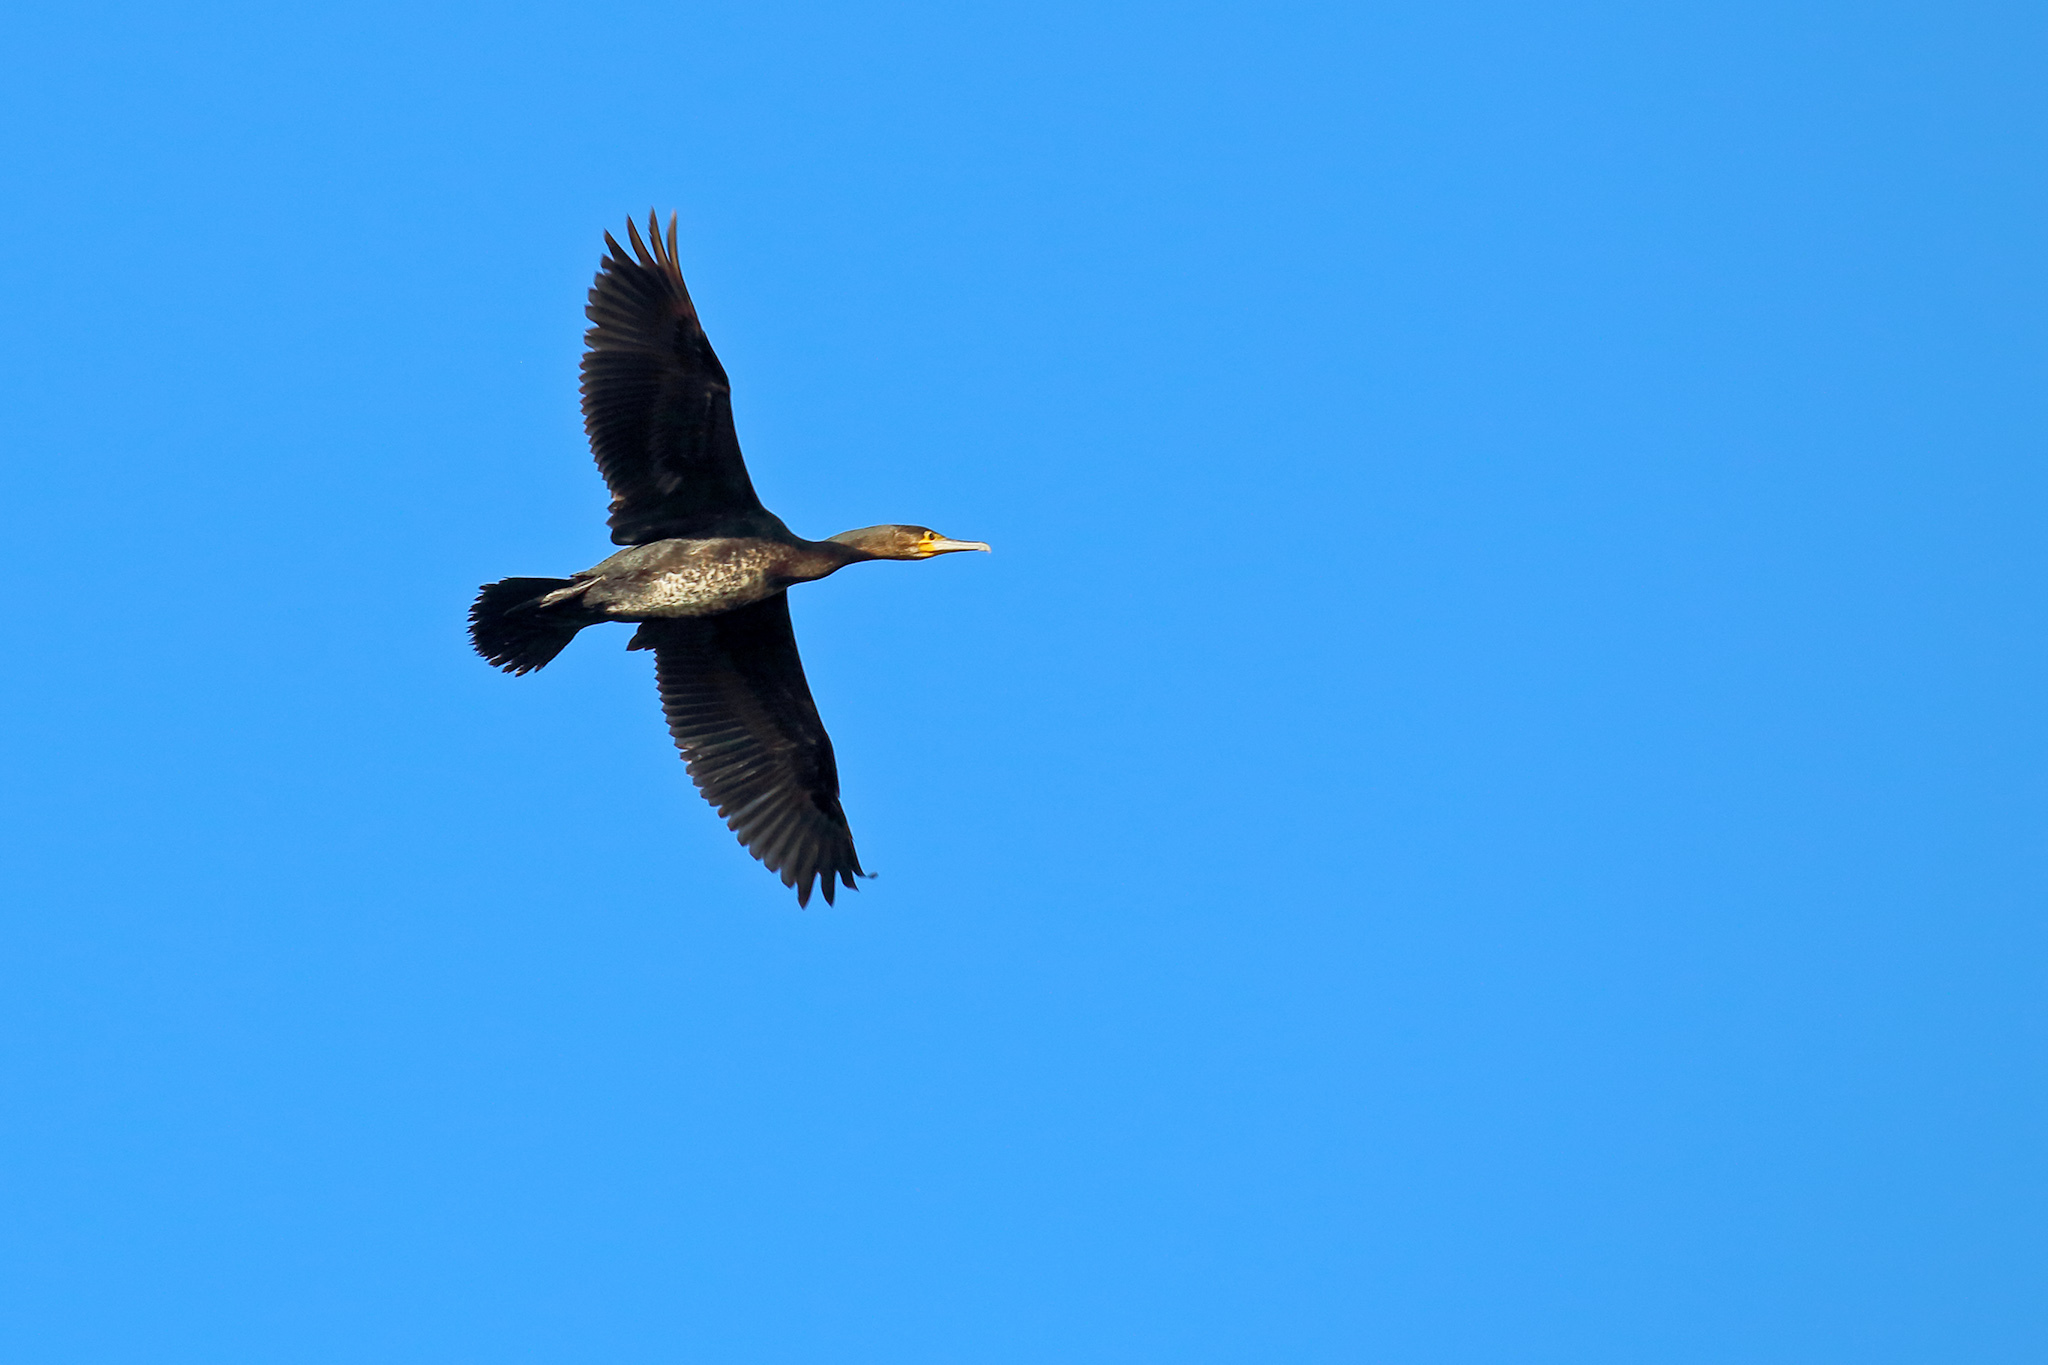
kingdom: Animalia
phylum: Chordata
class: Aves
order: Suliformes
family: Phalacrocoracidae
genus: Phalacrocorax
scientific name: Phalacrocorax carbo
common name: Great cormorant
